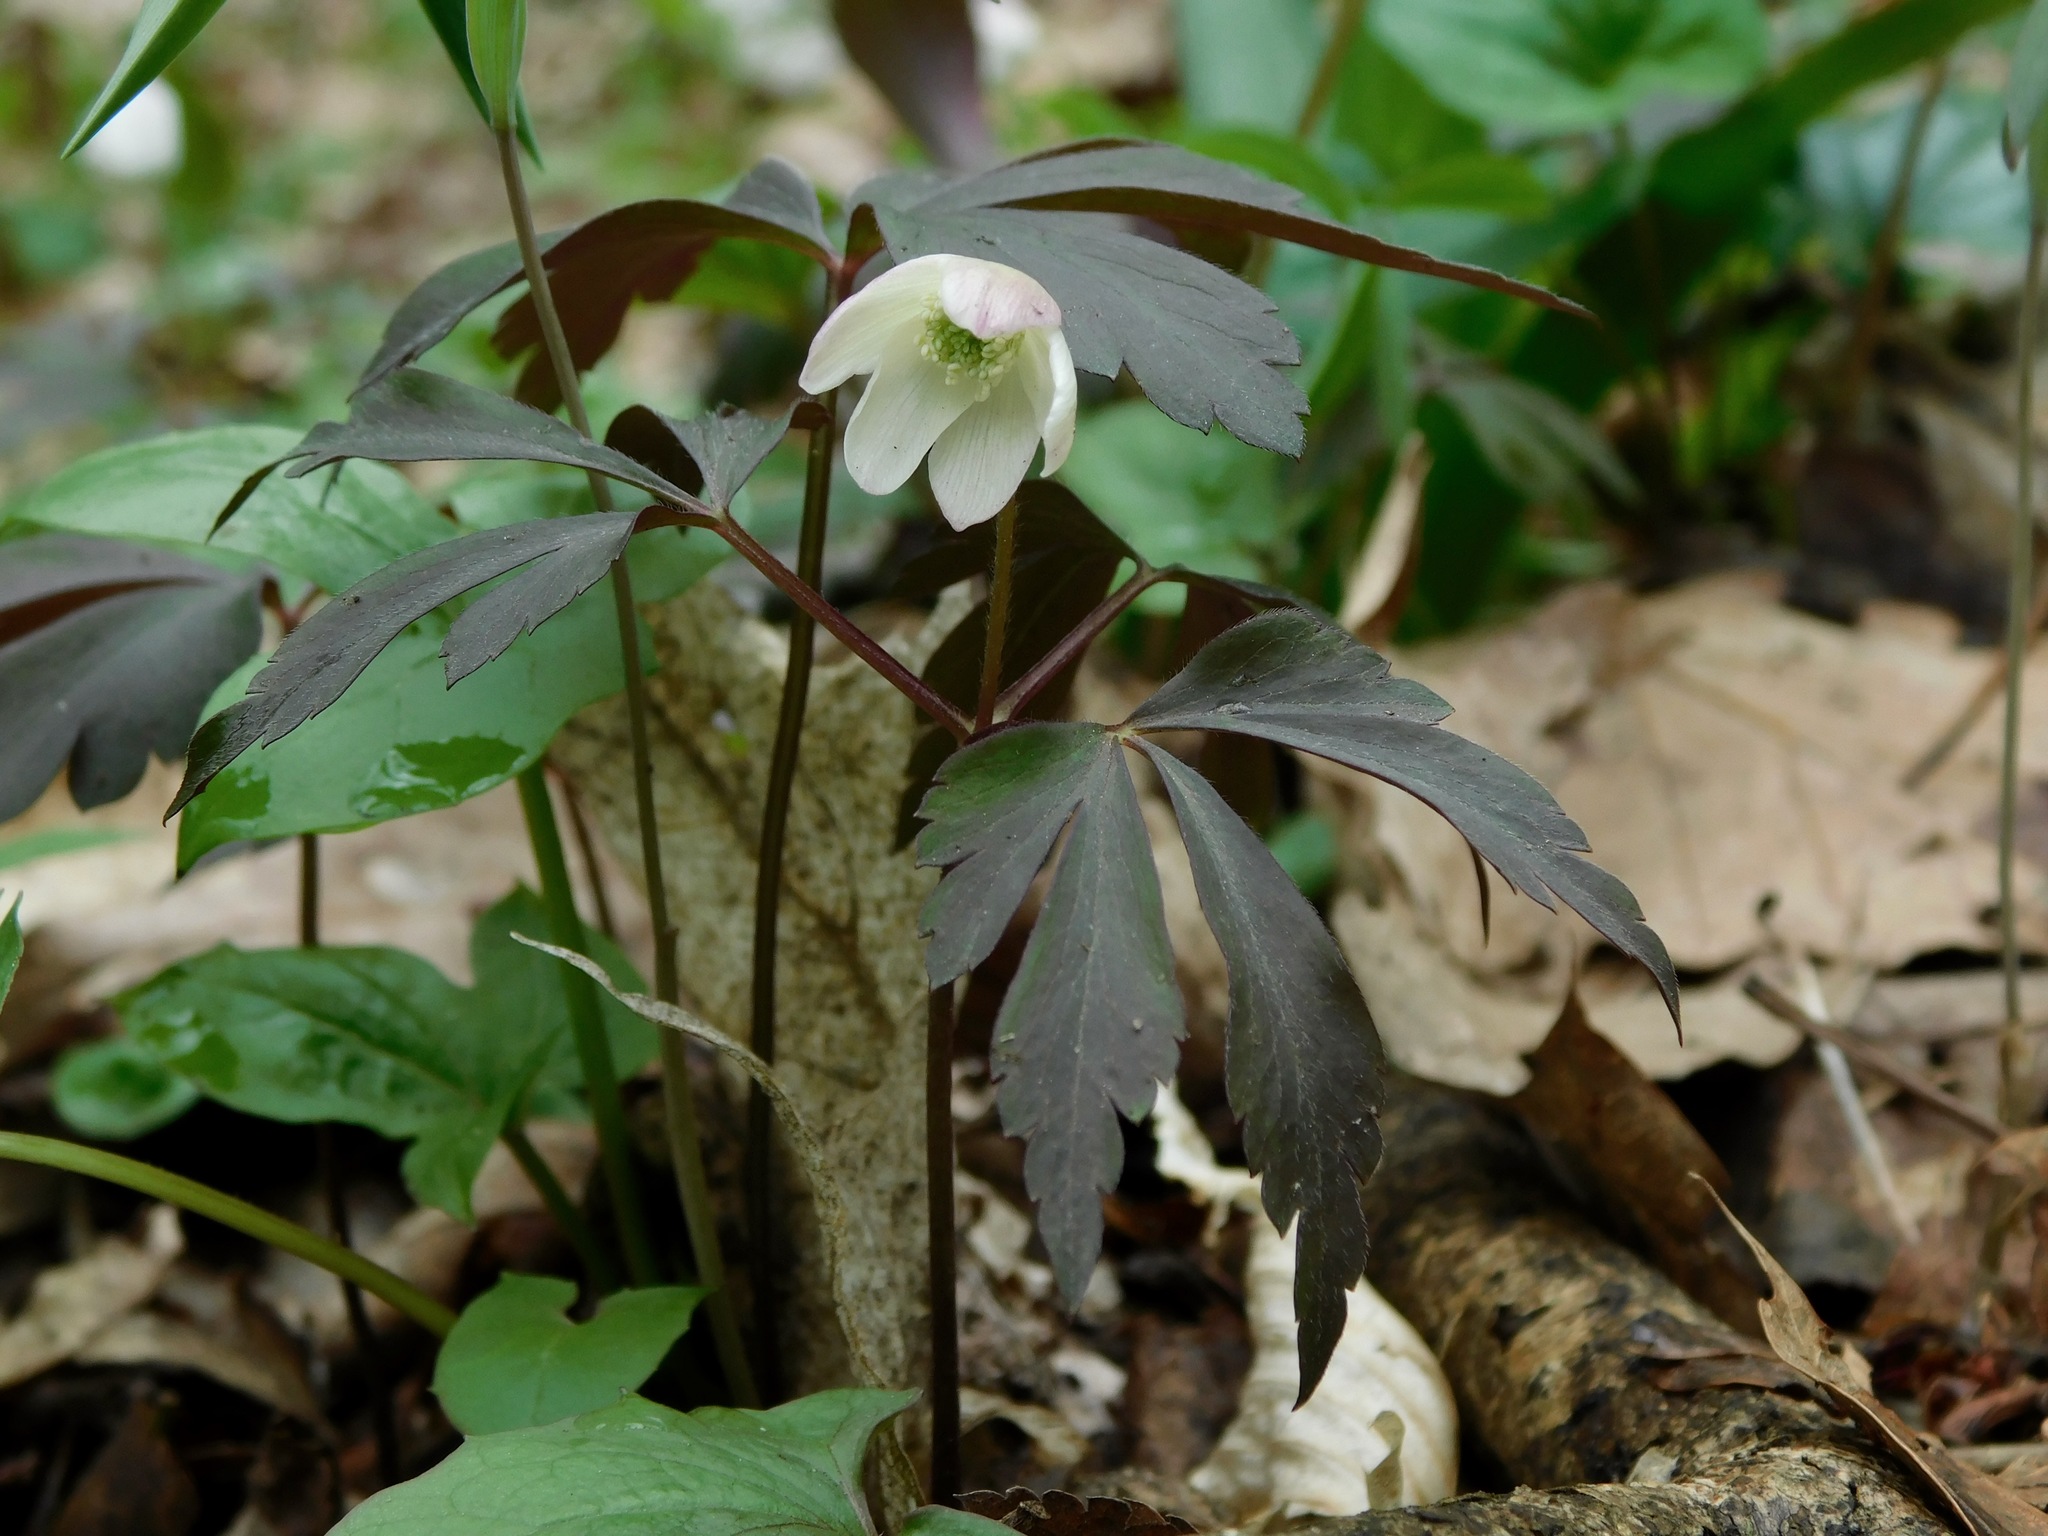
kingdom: Plantae
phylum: Tracheophyta
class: Magnoliopsida
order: Ranunculales
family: Ranunculaceae
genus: Anemone
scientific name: Anemone quinquefolia
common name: Wood anemone
